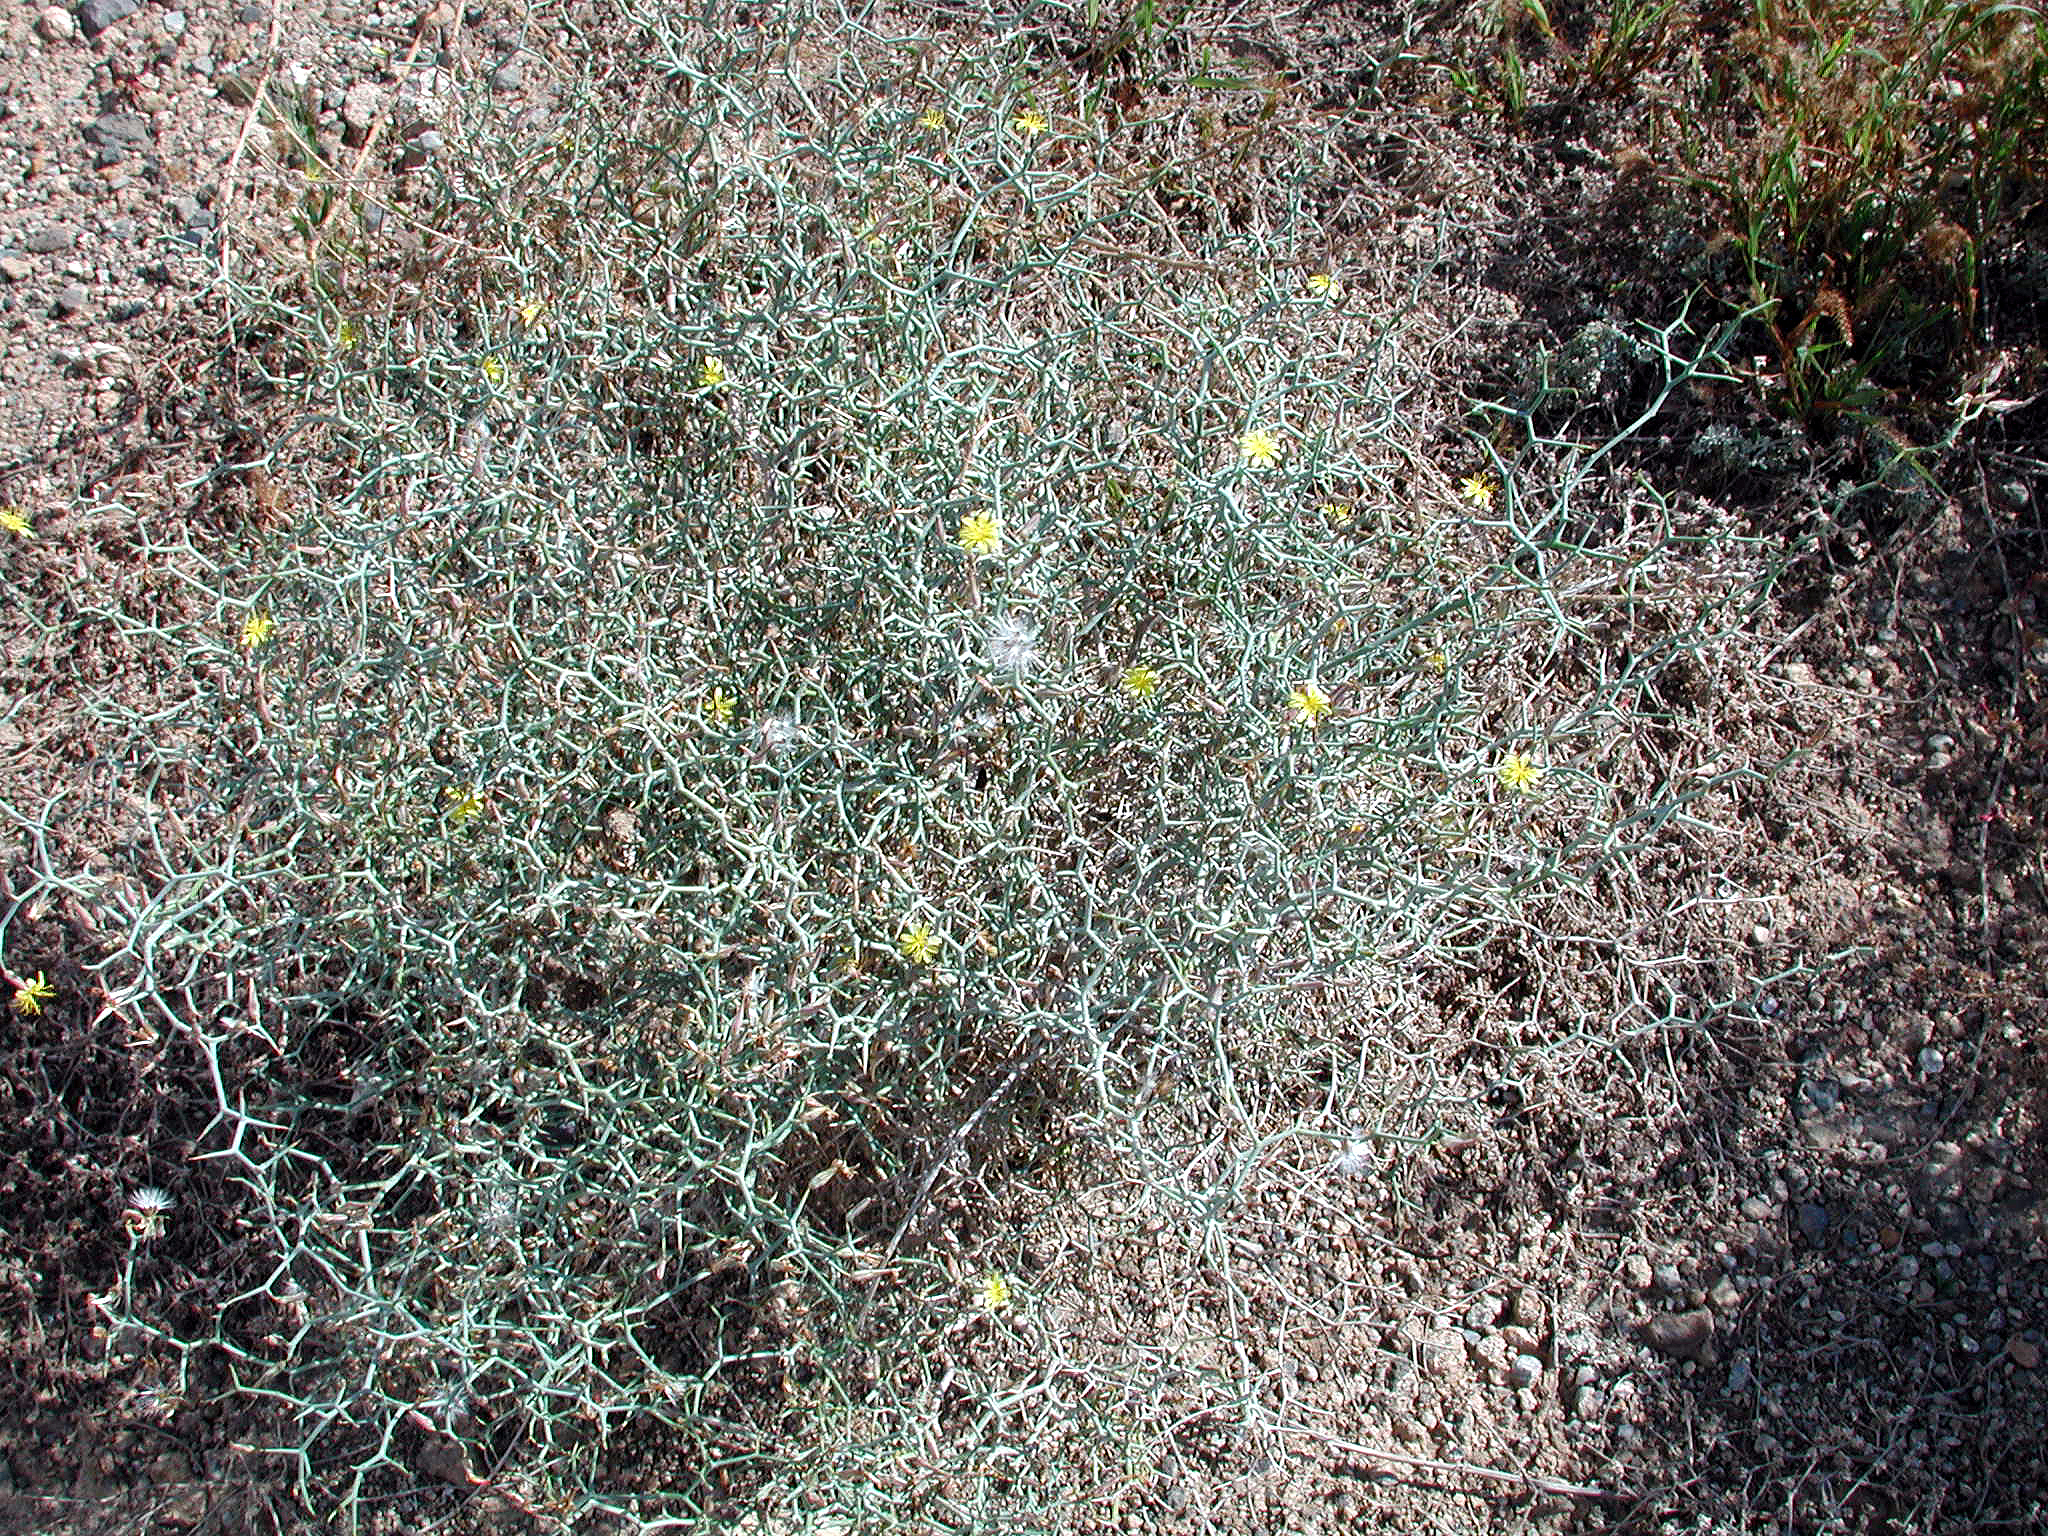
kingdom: Plantae
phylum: Tracheophyta
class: Magnoliopsida
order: Asterales
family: Asteraceae
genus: Launaea
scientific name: Launaea arborescens
